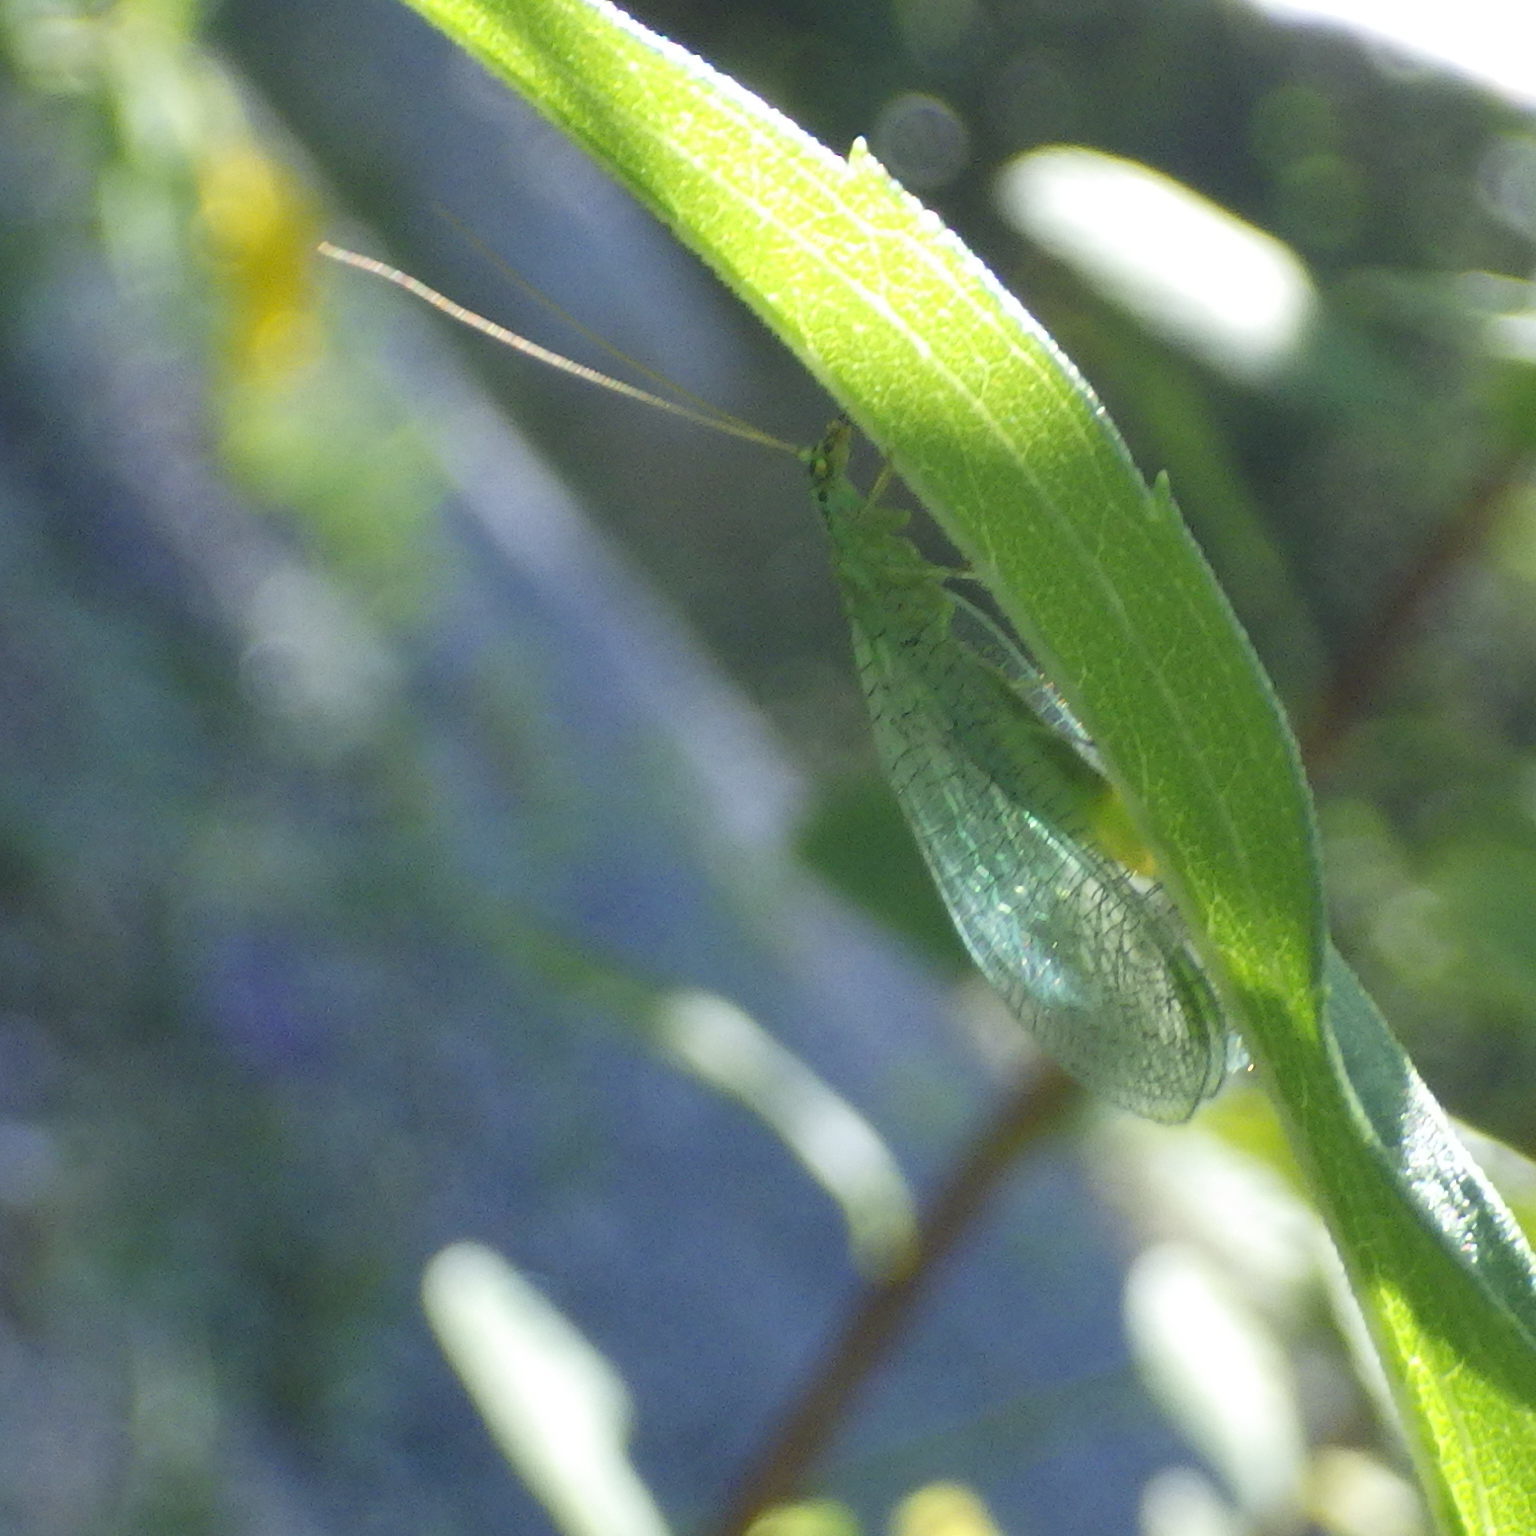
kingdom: Animalia
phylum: Arthropoda
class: Insecta
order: Neuroptera
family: Chrysopidae
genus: Chrysopa
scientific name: Chrysopa chi
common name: X-marked green lacewing
